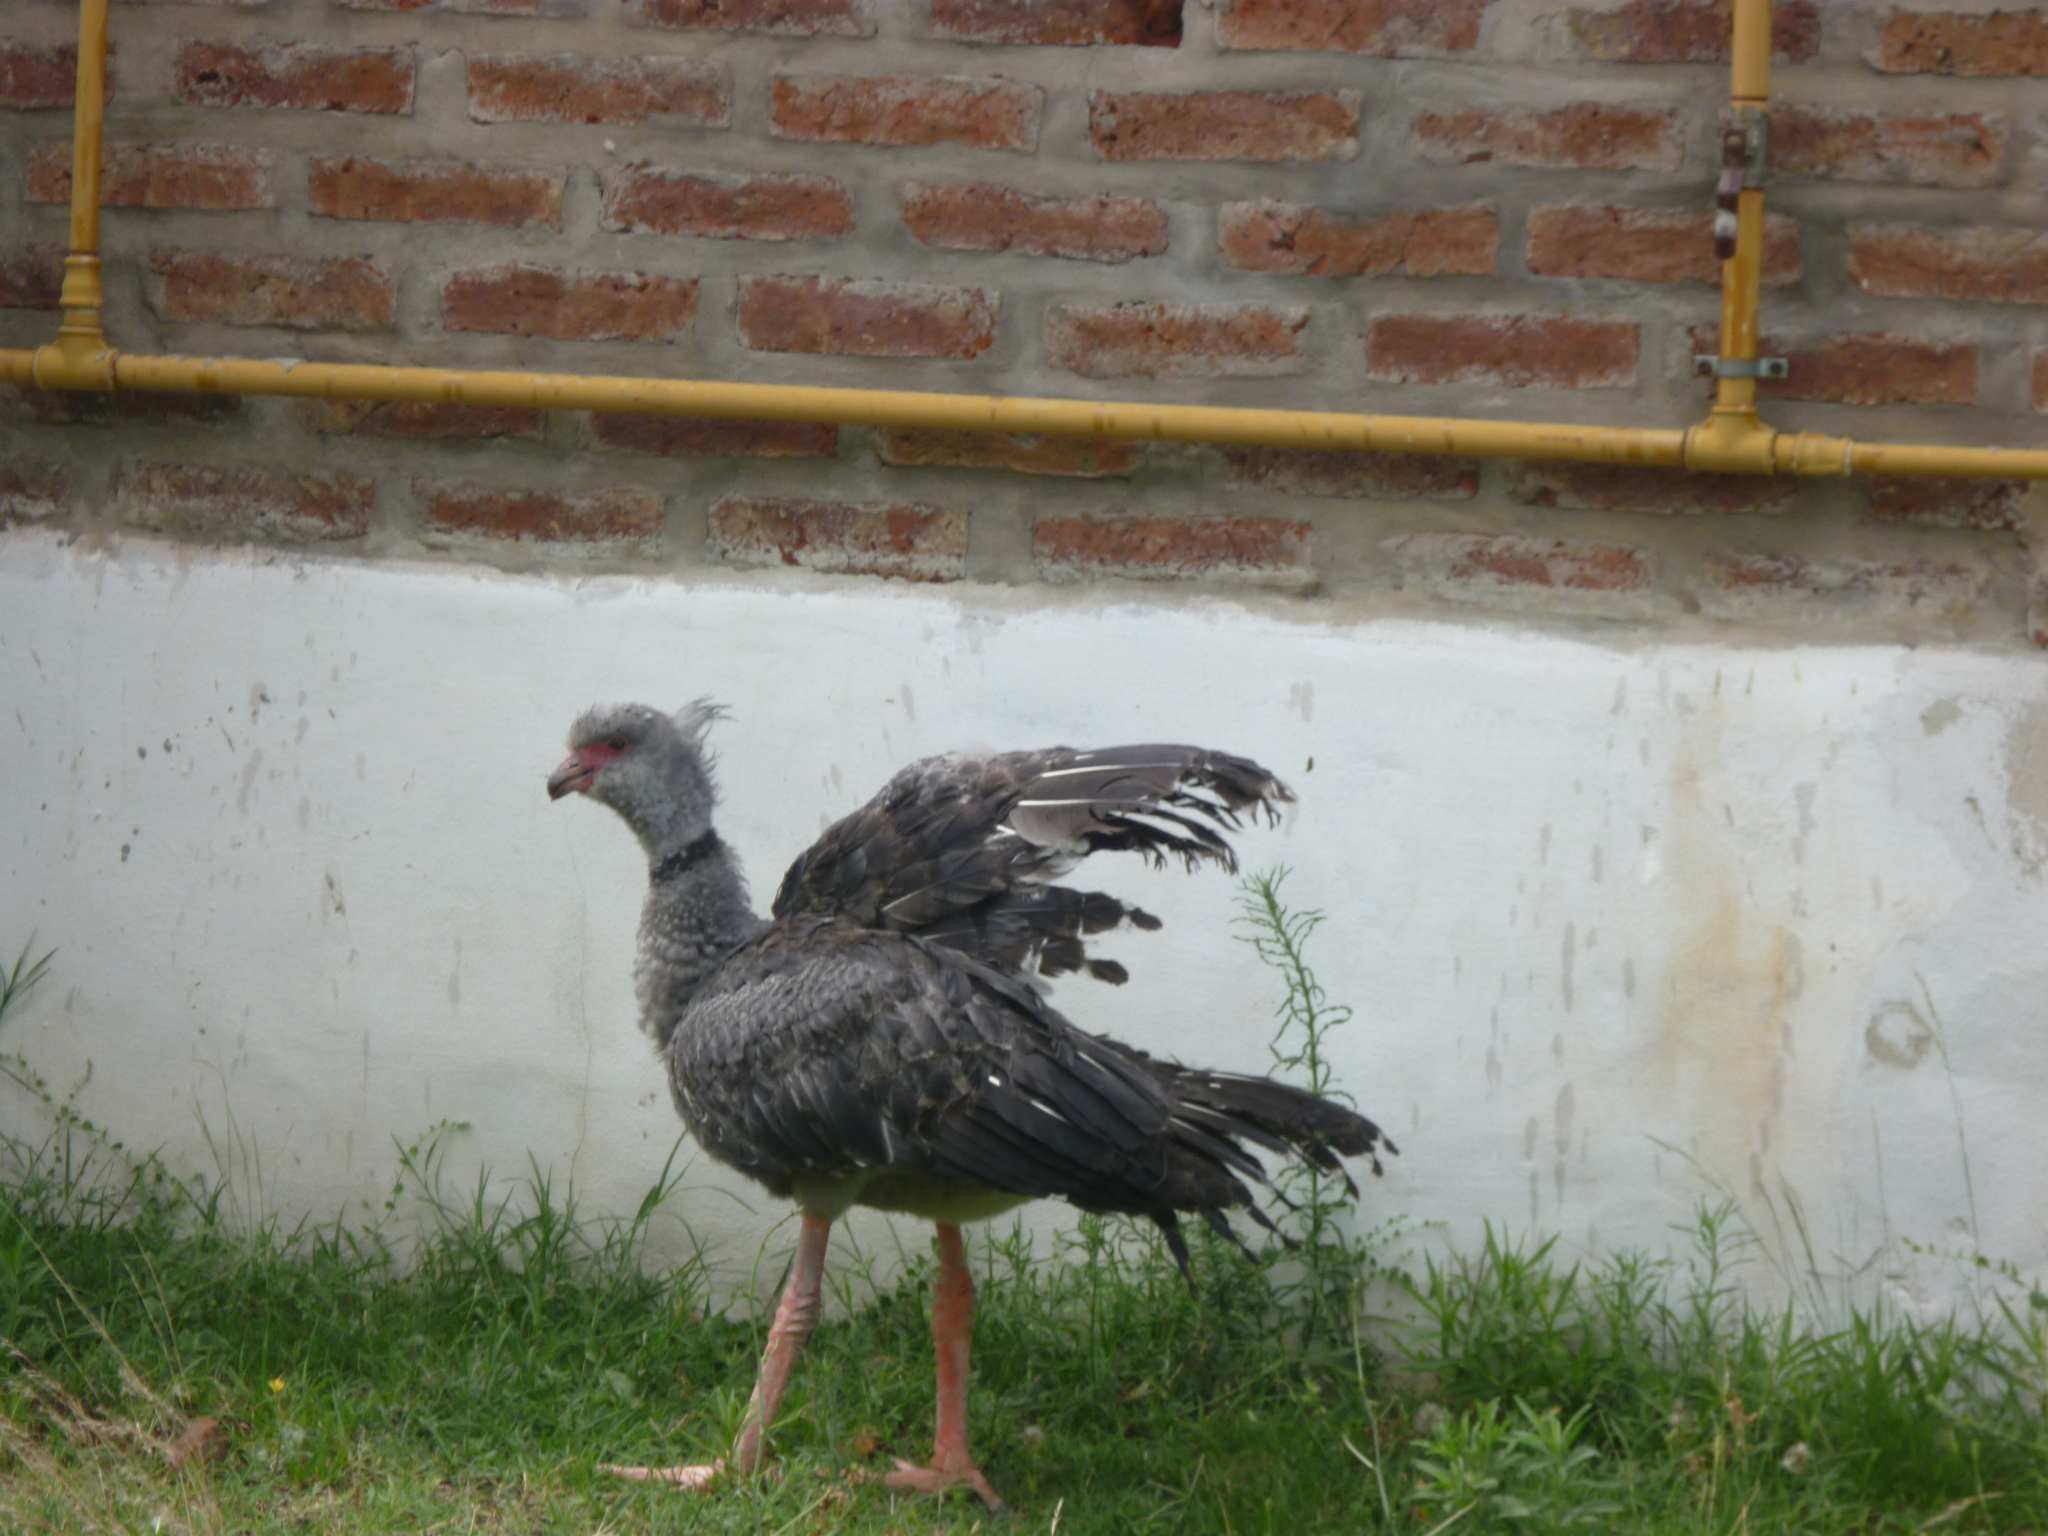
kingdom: Animalia
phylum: Chordata
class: Aves
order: Anseriformes
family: Anhimidae
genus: Chauna
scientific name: Chauna torquata
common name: Southern screamer
